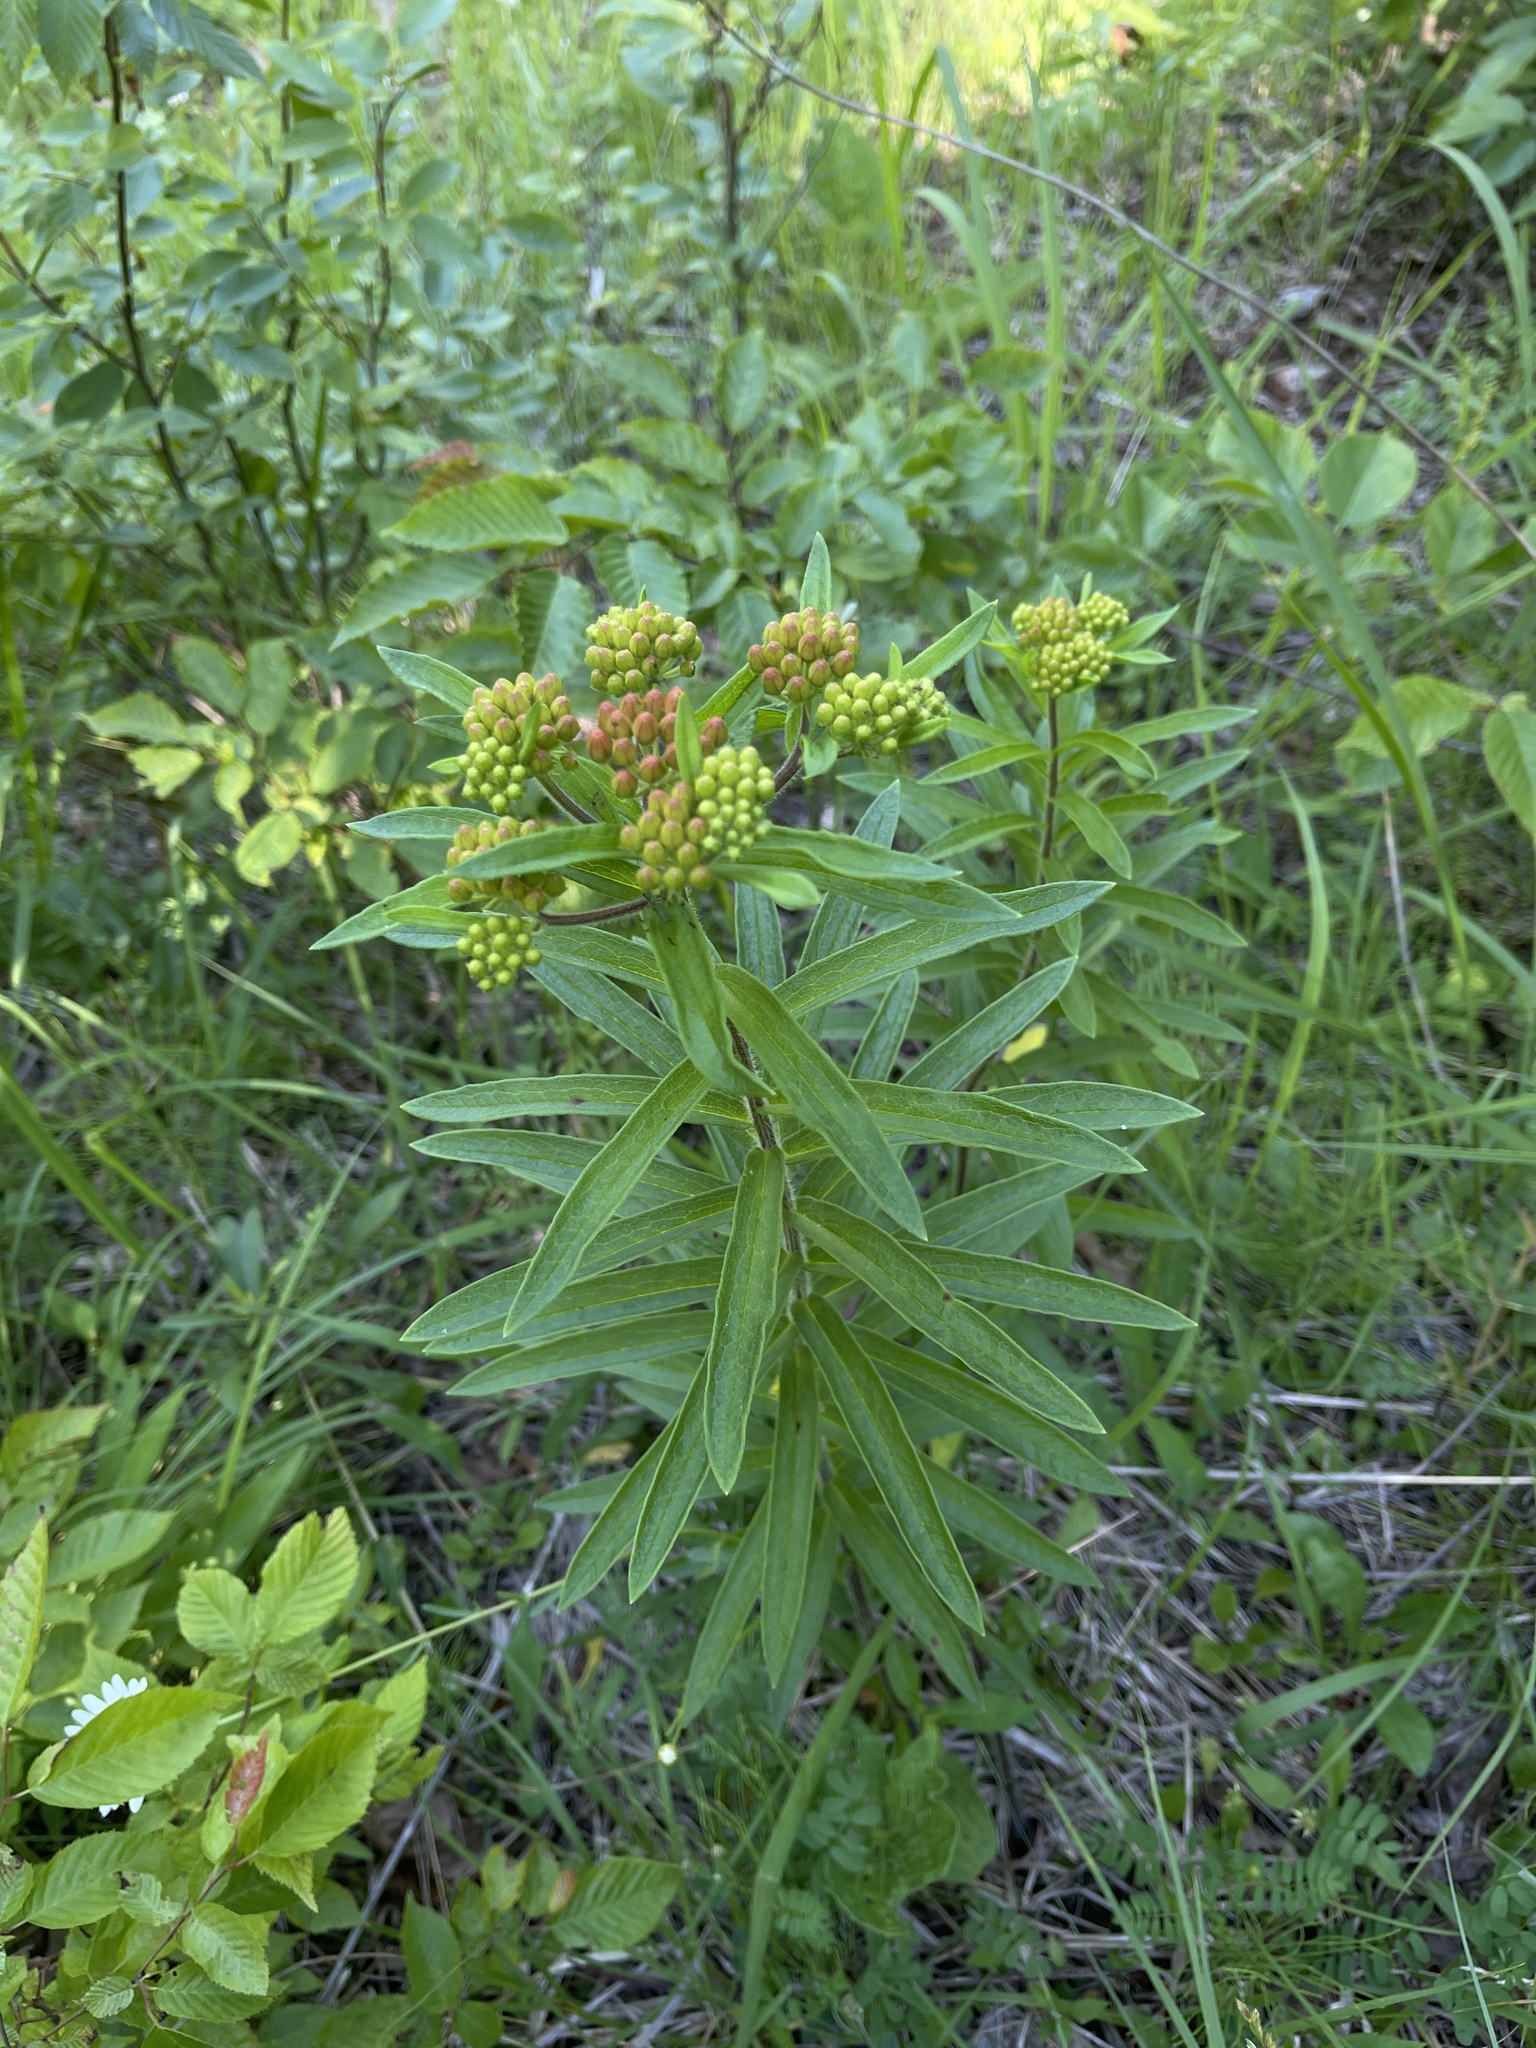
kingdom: Plantae
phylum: Tracheophyta
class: Magnoliopsida
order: Gentianales
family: Apocynaceae
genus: Asclepias
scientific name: Asclepias tuberosa
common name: Butterfly milkweed
